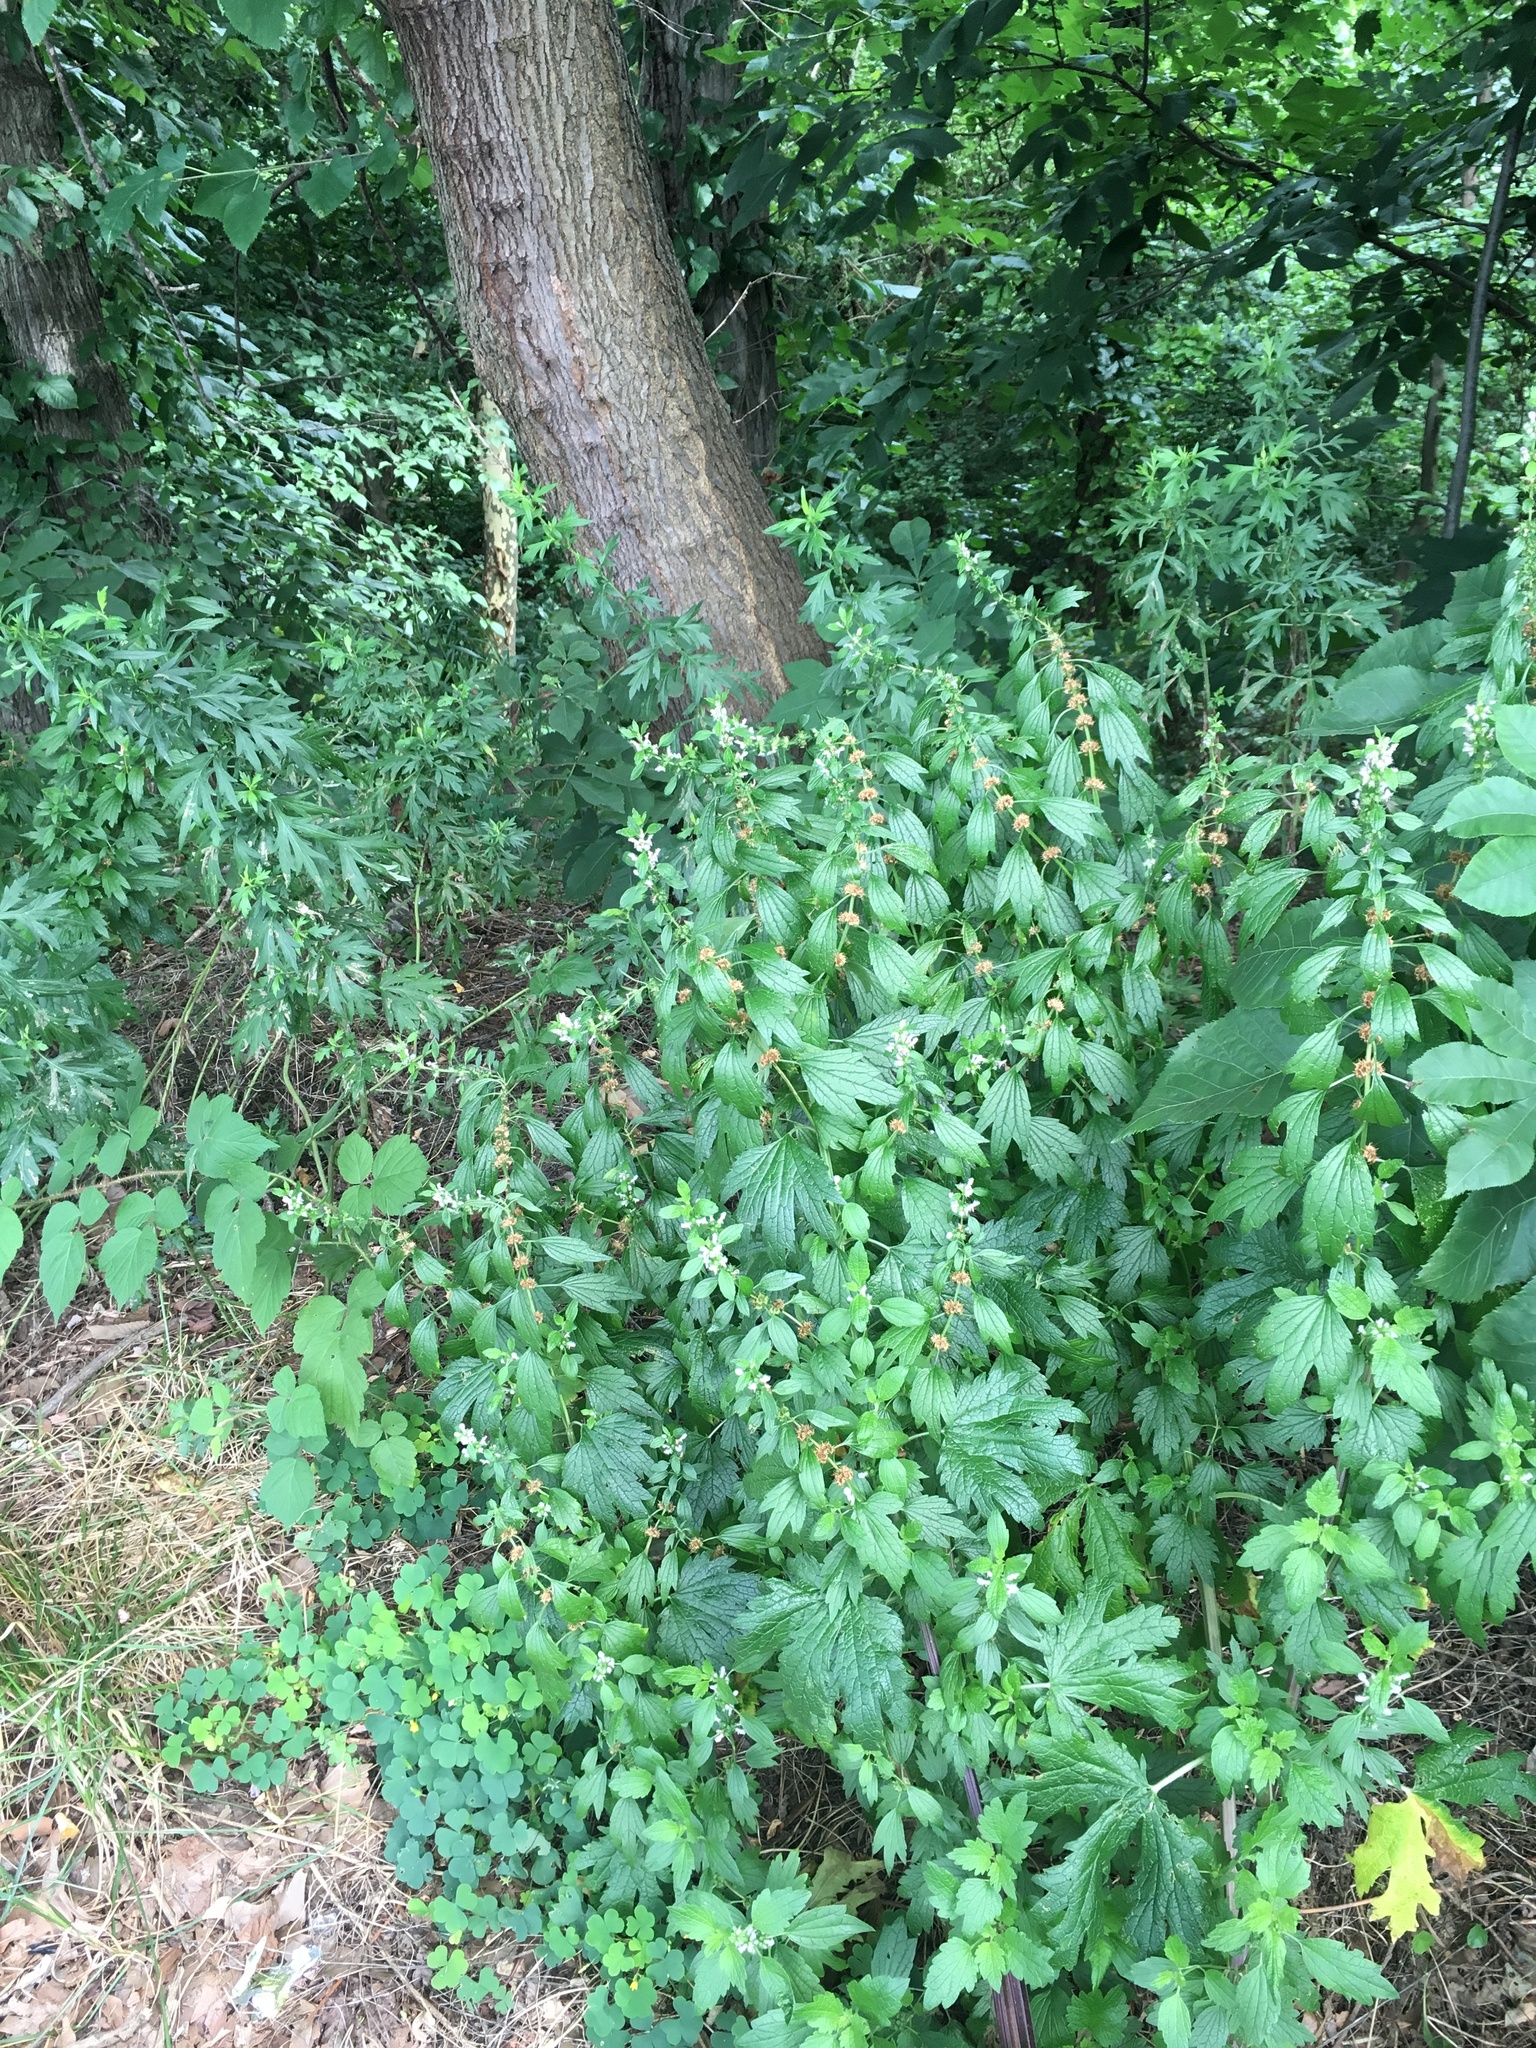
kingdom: Plantae
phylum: Tracheophyta
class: Magnoliopsida
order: Lamiales
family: Lamiaceae
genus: Leonurus
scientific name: Leonurus cardiaca
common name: Motherwort
